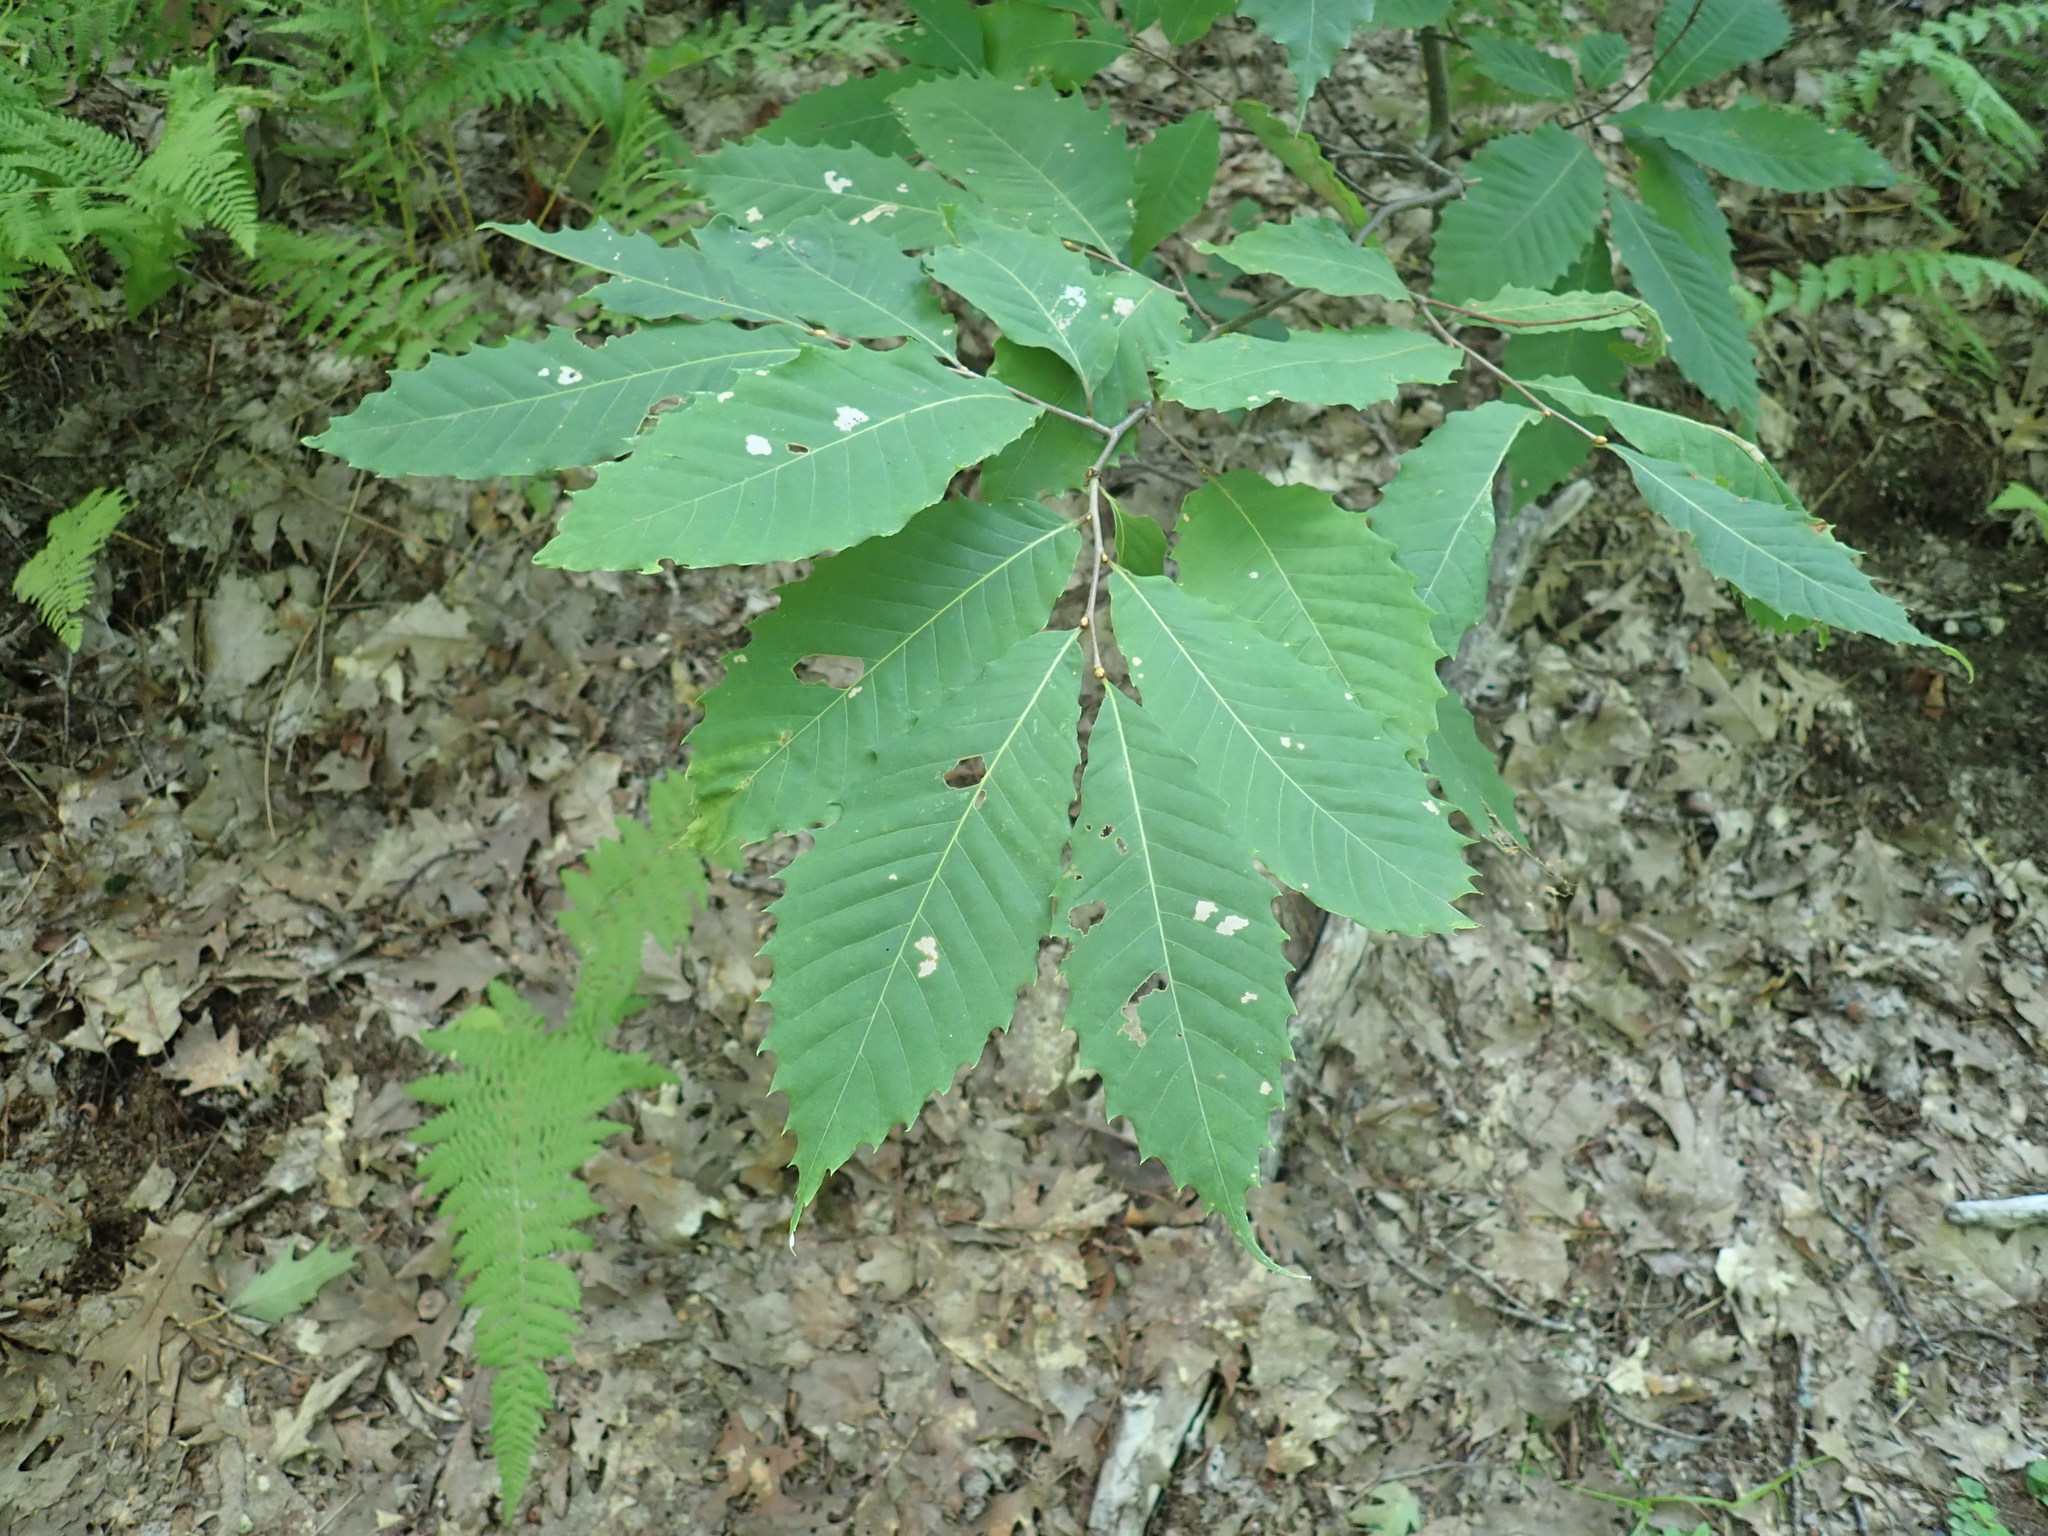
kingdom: Plantae
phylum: Tracheophyta
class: Magnoliopsida
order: Fagales
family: Fagaceae
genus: Castanea
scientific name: Castanea dentata
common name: American chestnut
